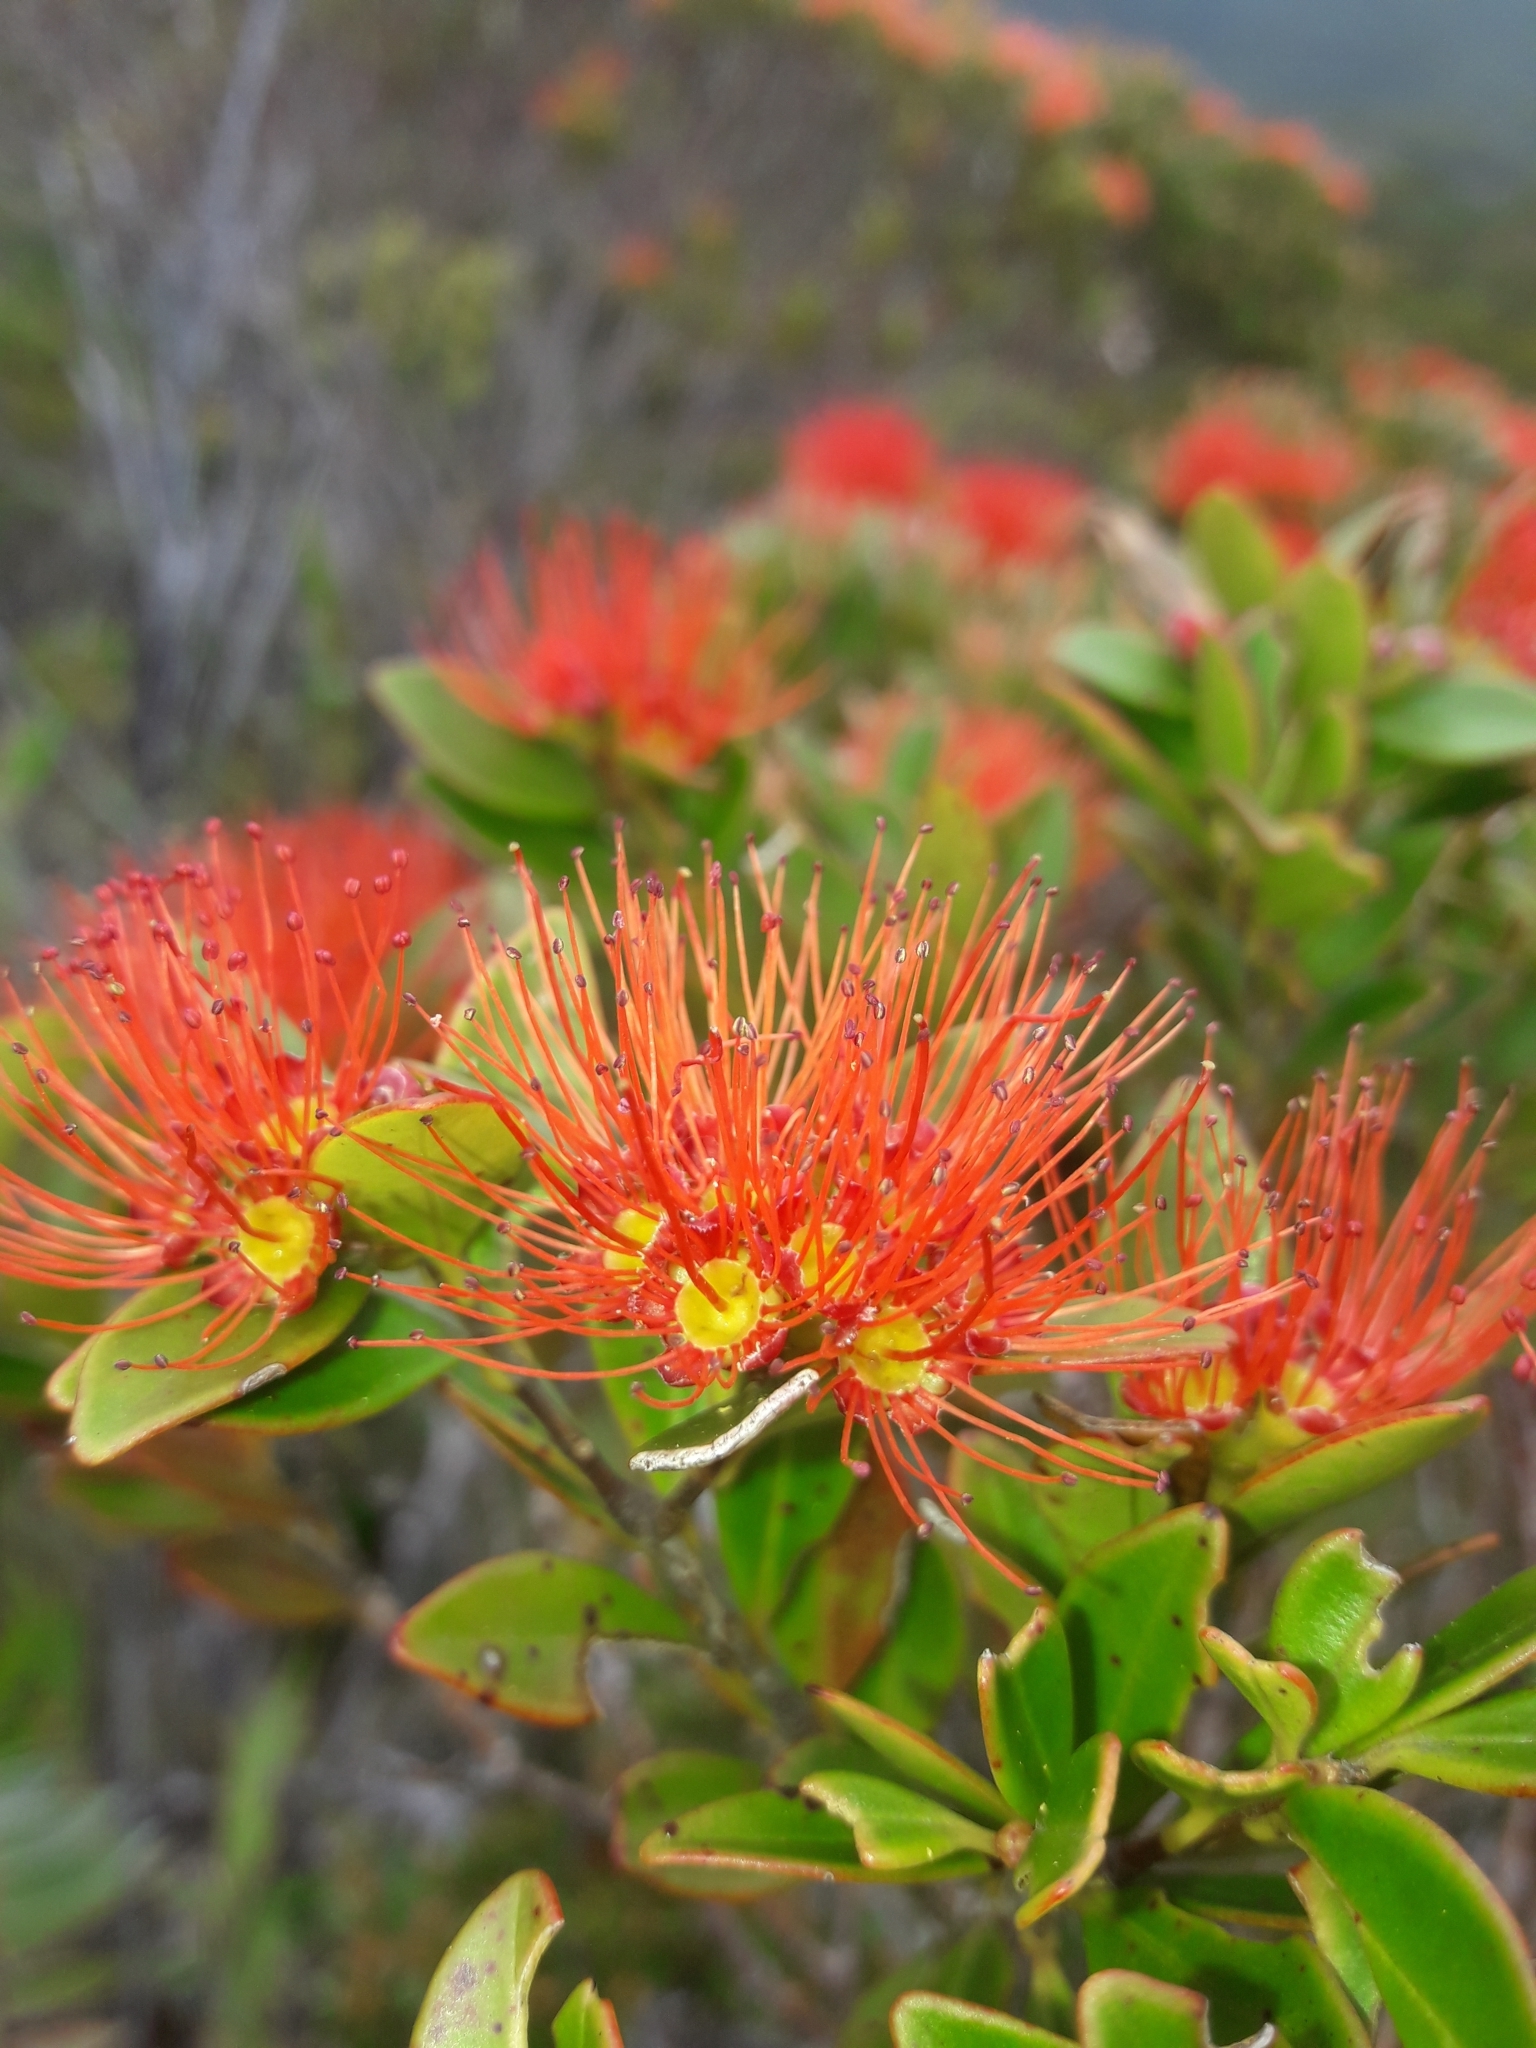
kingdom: Plantae
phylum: Tracheophyta
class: Magnoliopsida
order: Myrtales
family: Myrtaceae
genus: Metrosideros
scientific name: Metrosideros punctata
